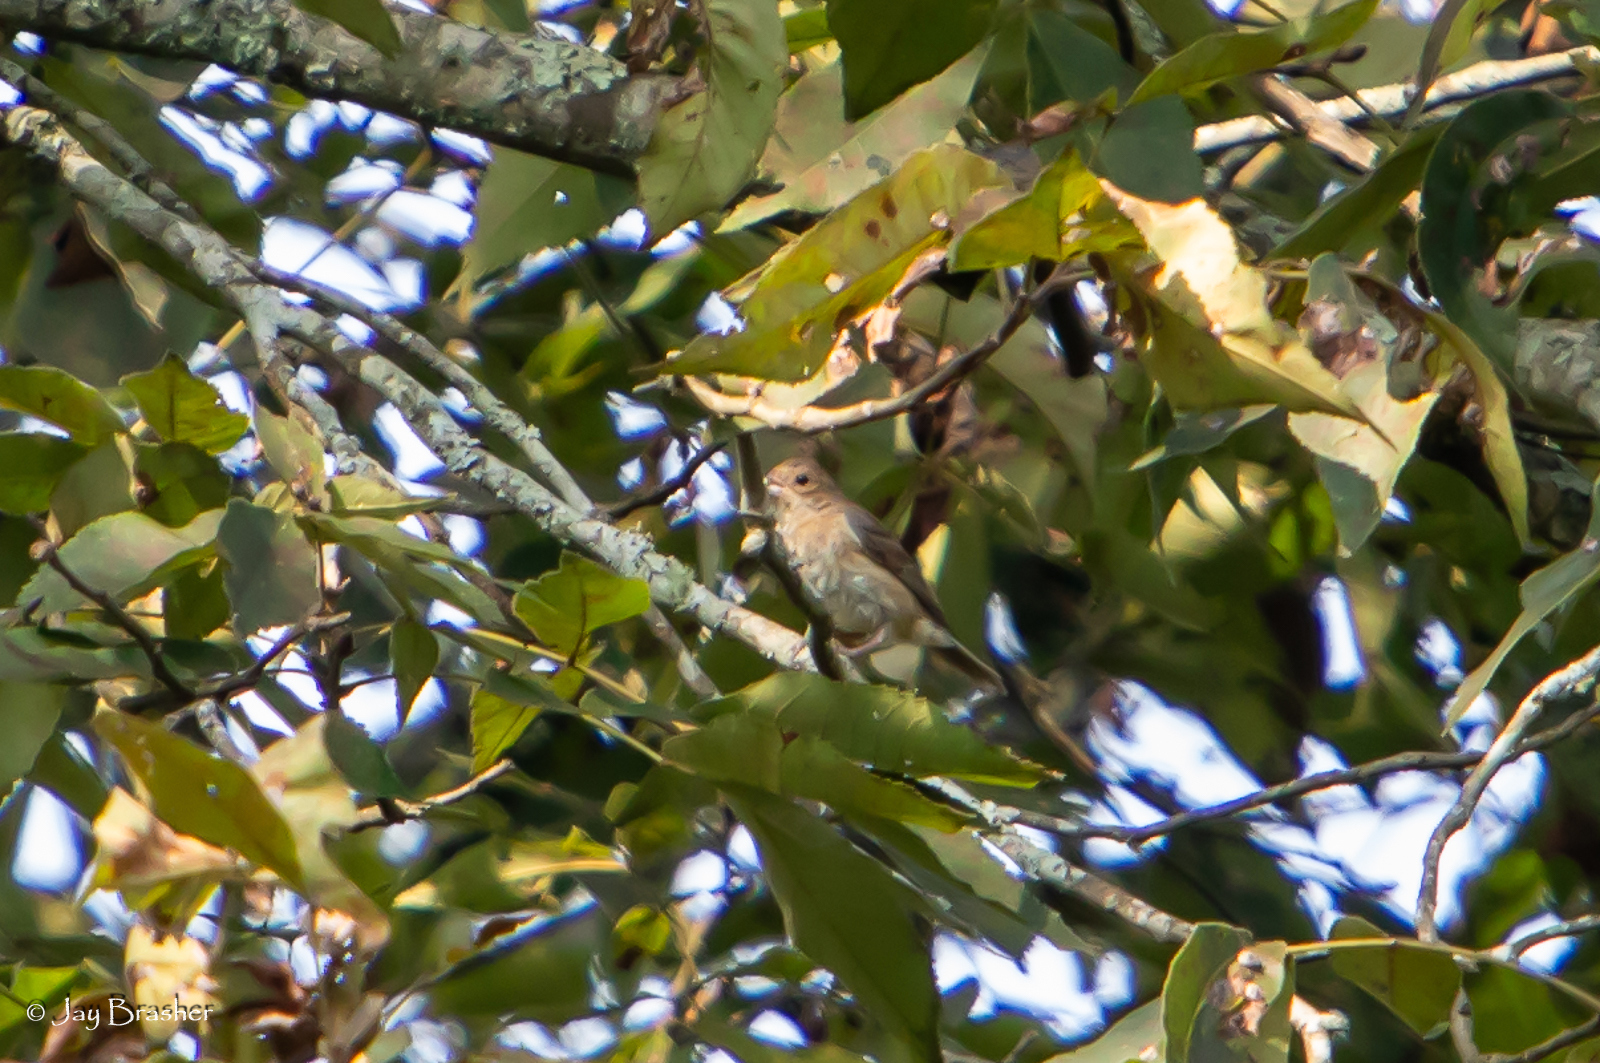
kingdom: Animalia
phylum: Chordata
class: Aves
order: Passeriformes
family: Cardinalidae
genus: Passerina
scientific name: Passerina cyanea
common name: Indigo bunting
